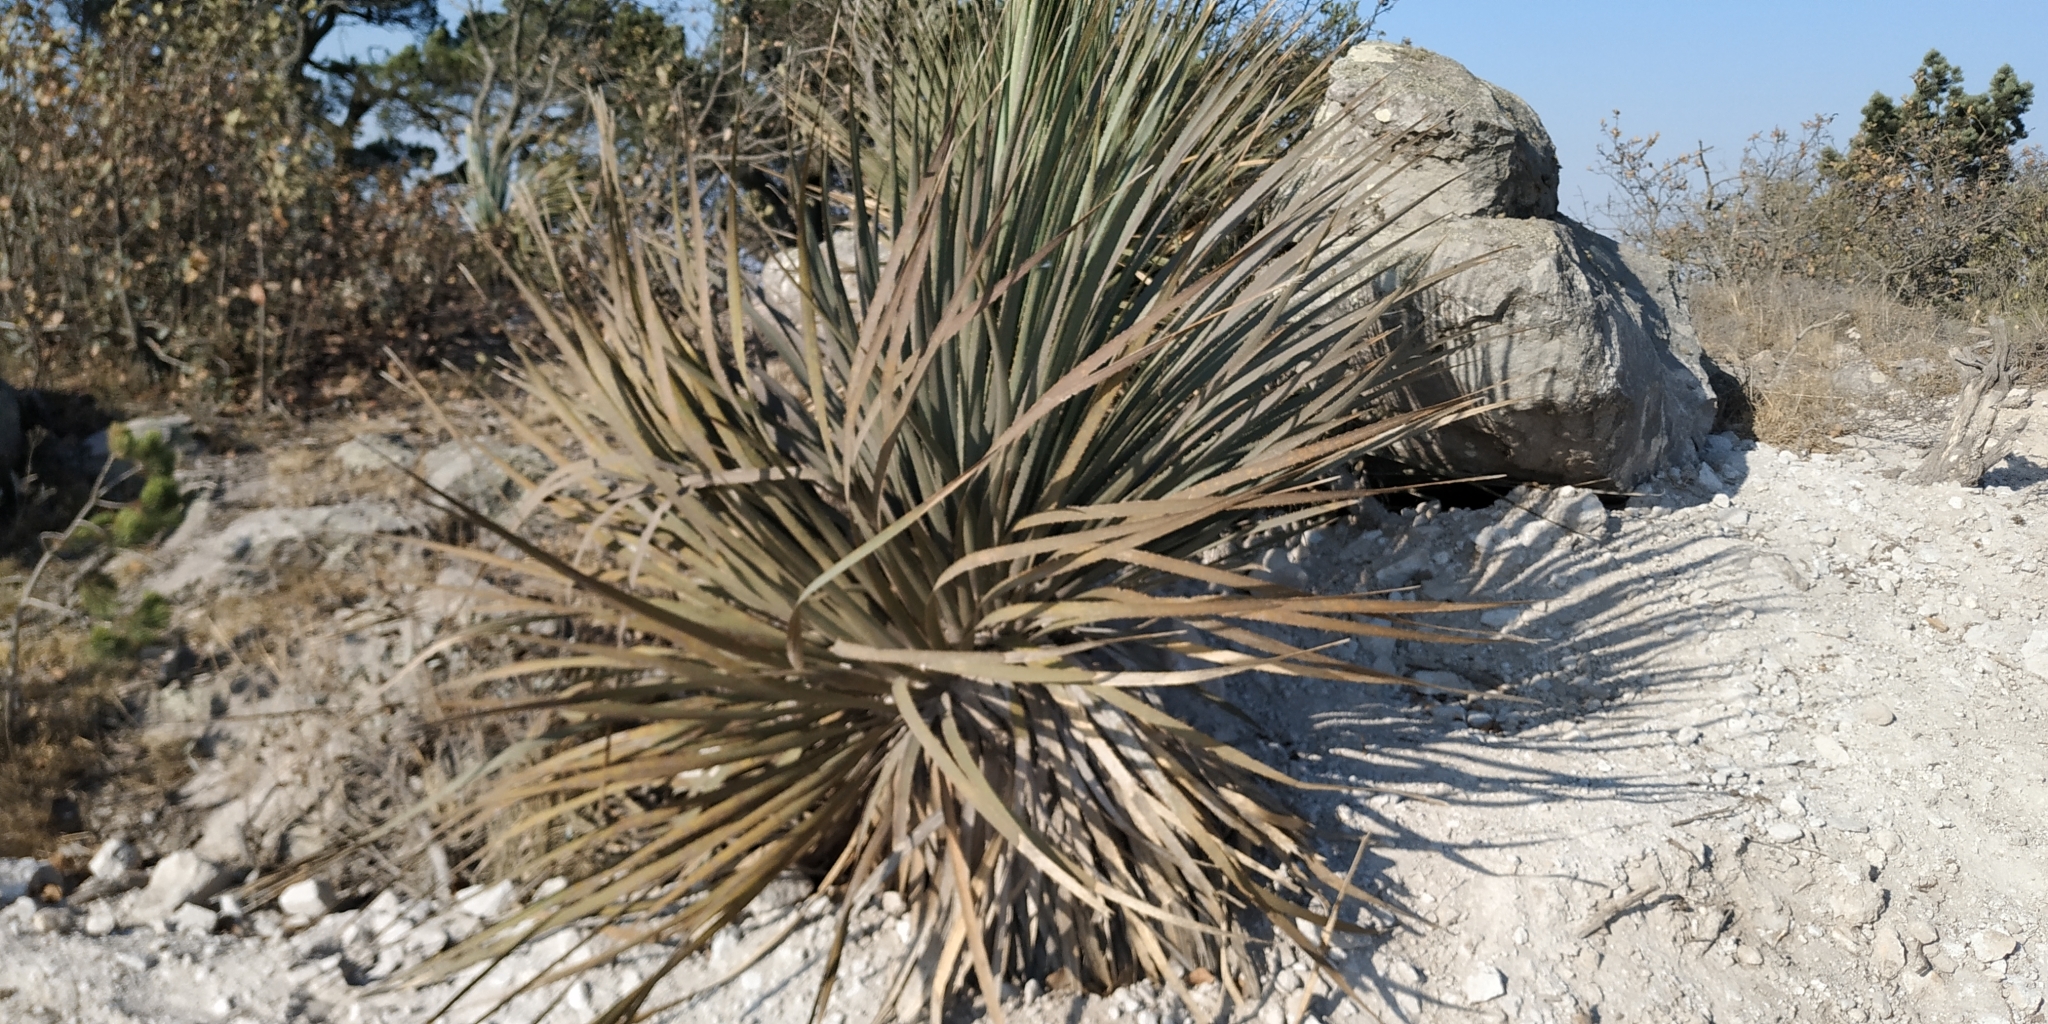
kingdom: Plantae
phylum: Tracheophyta
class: Liliopsida
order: Asparagales
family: Asparagaceae
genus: Dasylirion
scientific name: Dasylirion parryanum
